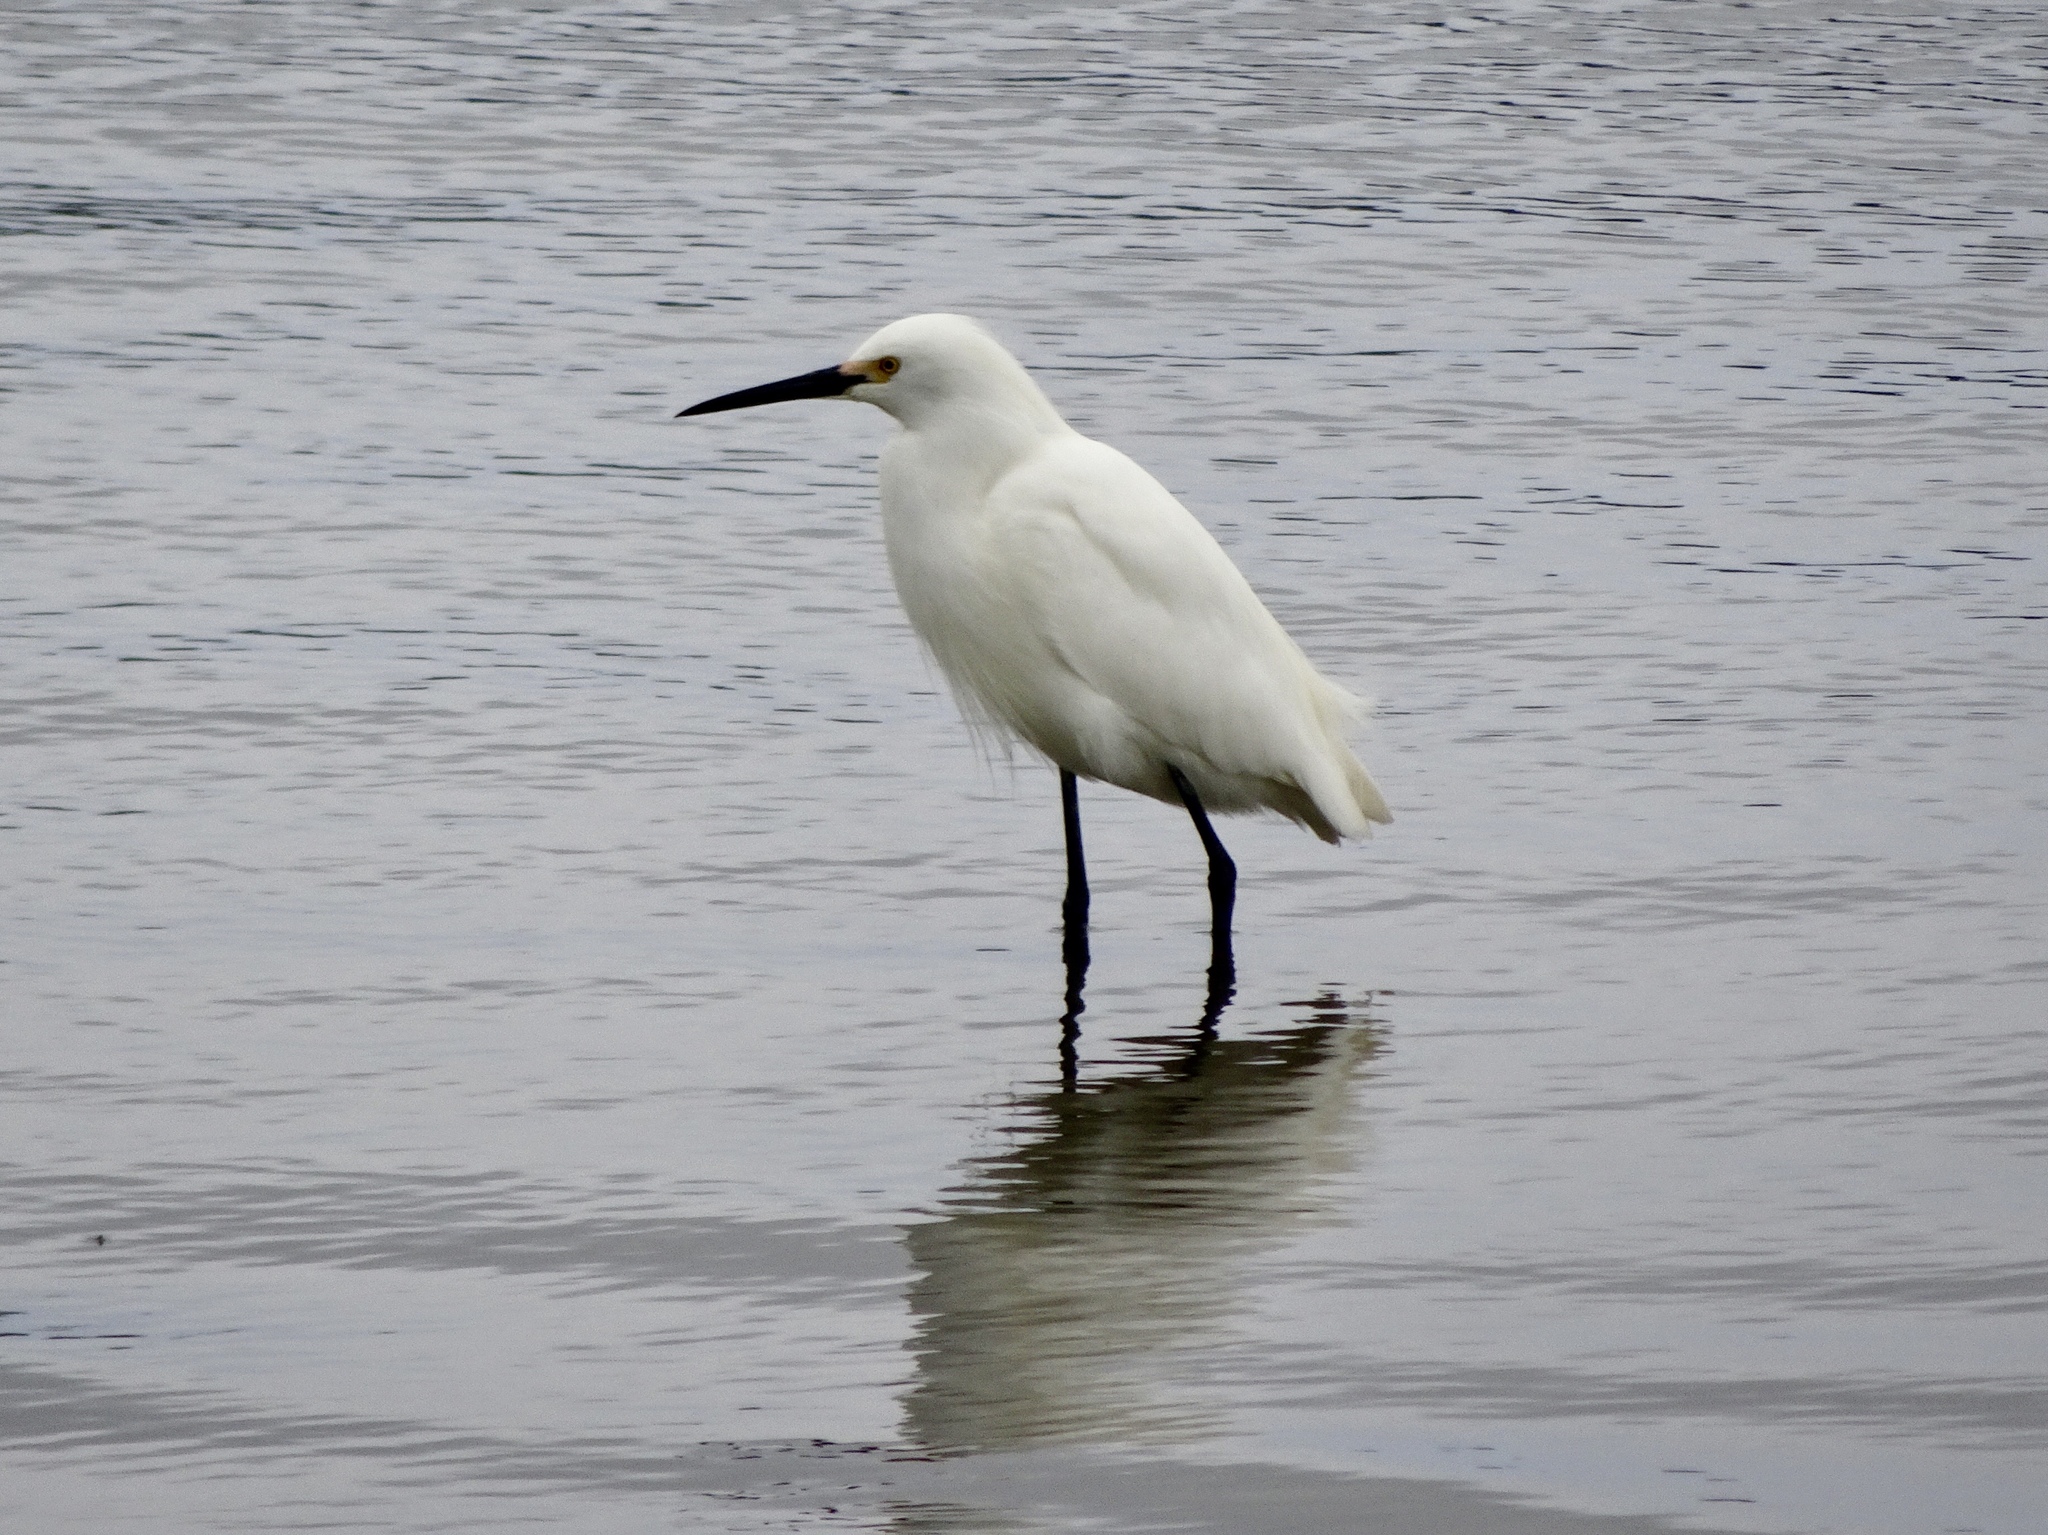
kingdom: Animalia
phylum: Chordata
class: Aves
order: Pelecaniformes
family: Ardeidae
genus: Egretta
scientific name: Egretta thula
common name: Snowy egret
